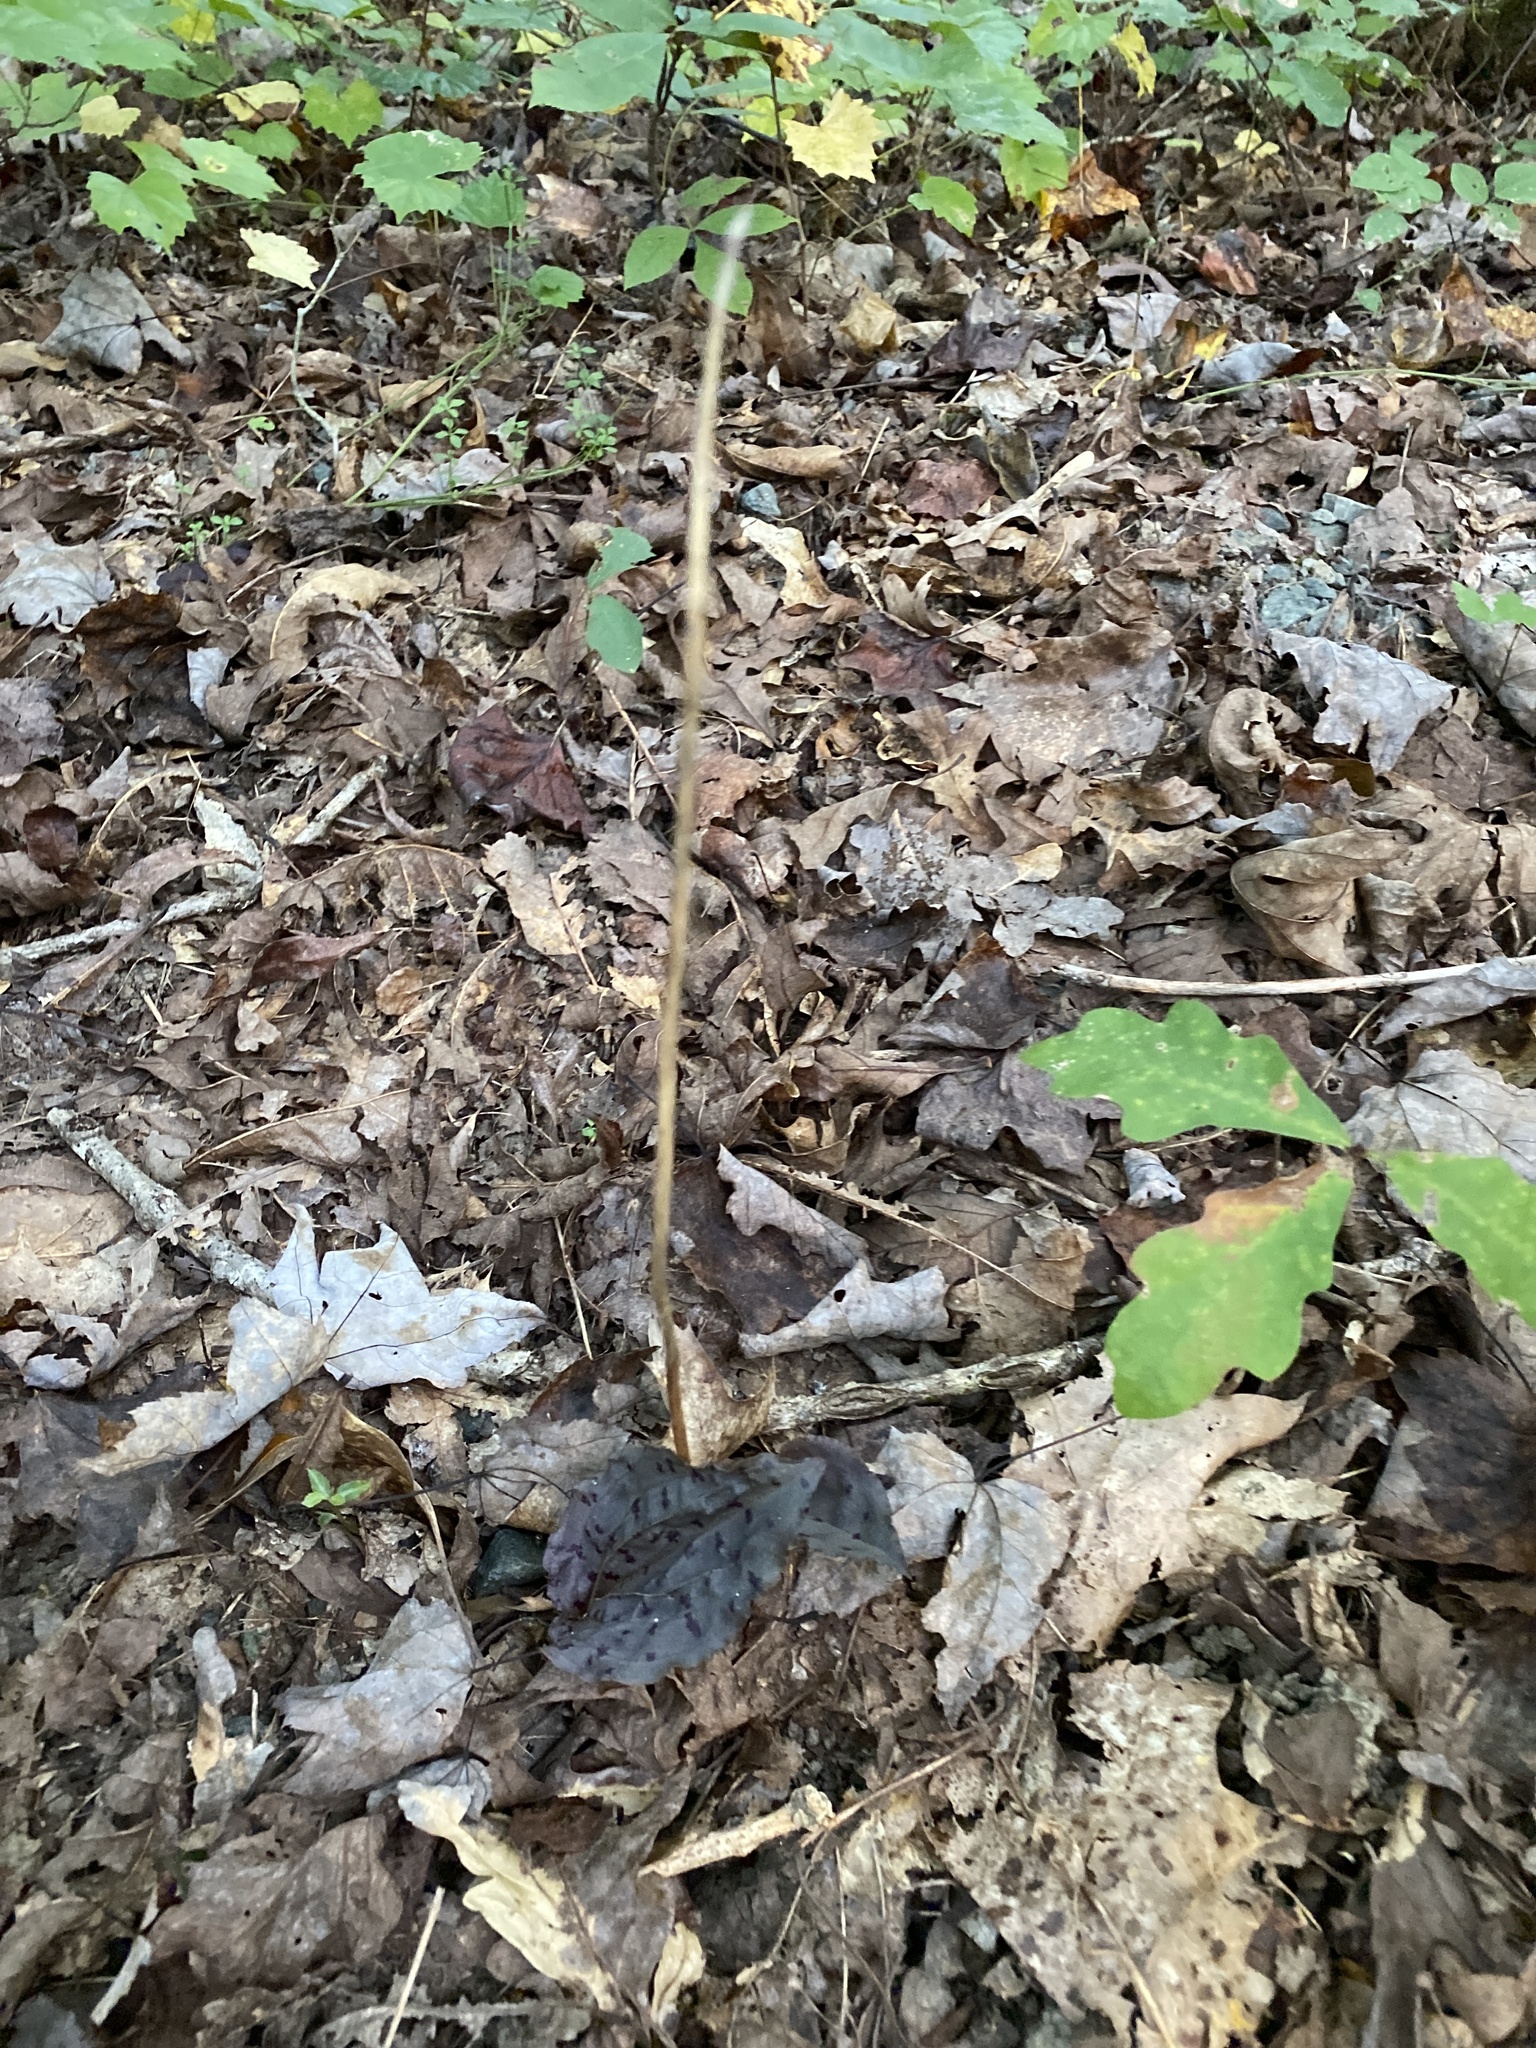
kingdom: Plantae
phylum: Tracheophyta
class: Liliopsida
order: Asparagales
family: Orchidaceae
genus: Tipularia
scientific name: Tipularia discolor
